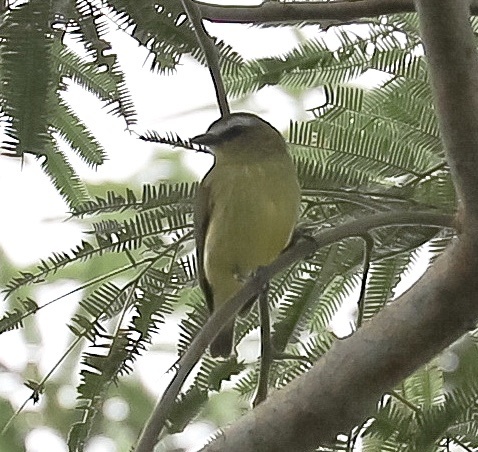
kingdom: Animalia
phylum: Chordata
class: Aves
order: Passeriformes
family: Tyrannidae
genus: Ornithion
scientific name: Ornithion brunneicapillus
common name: Brown-capped tyrannulet
